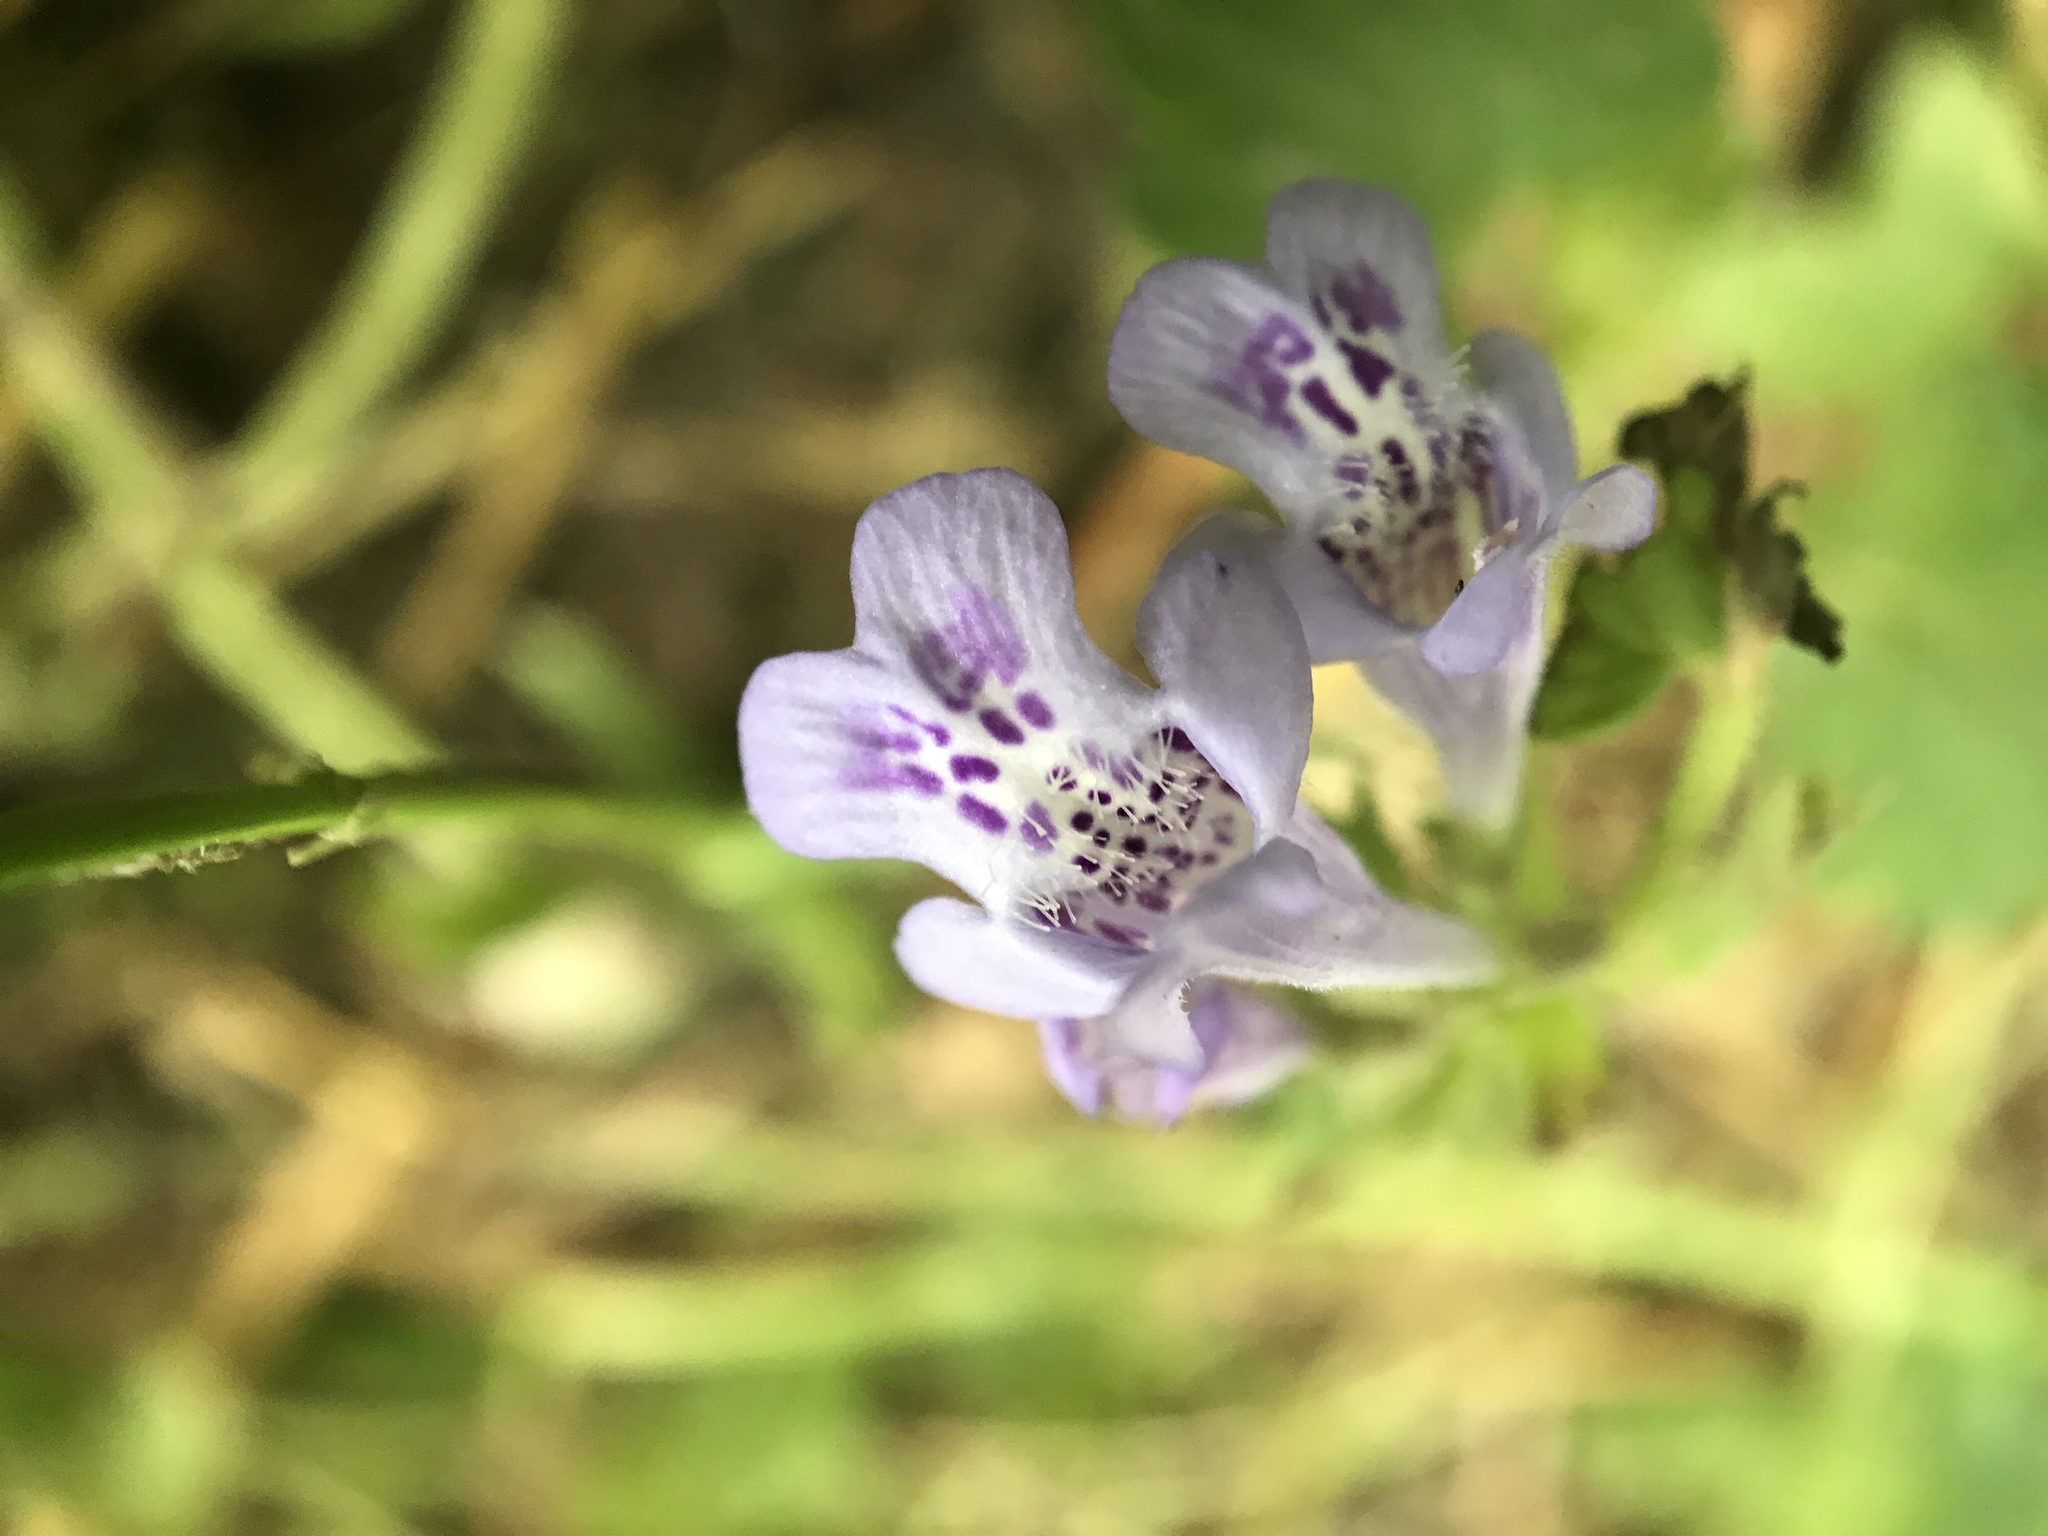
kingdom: Plantae
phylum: Tracheophyta
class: Magnoliopsida
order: Lamiales
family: Lamiaceae
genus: Glechoma
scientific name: Glechoma hederacea
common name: Ground ivy
